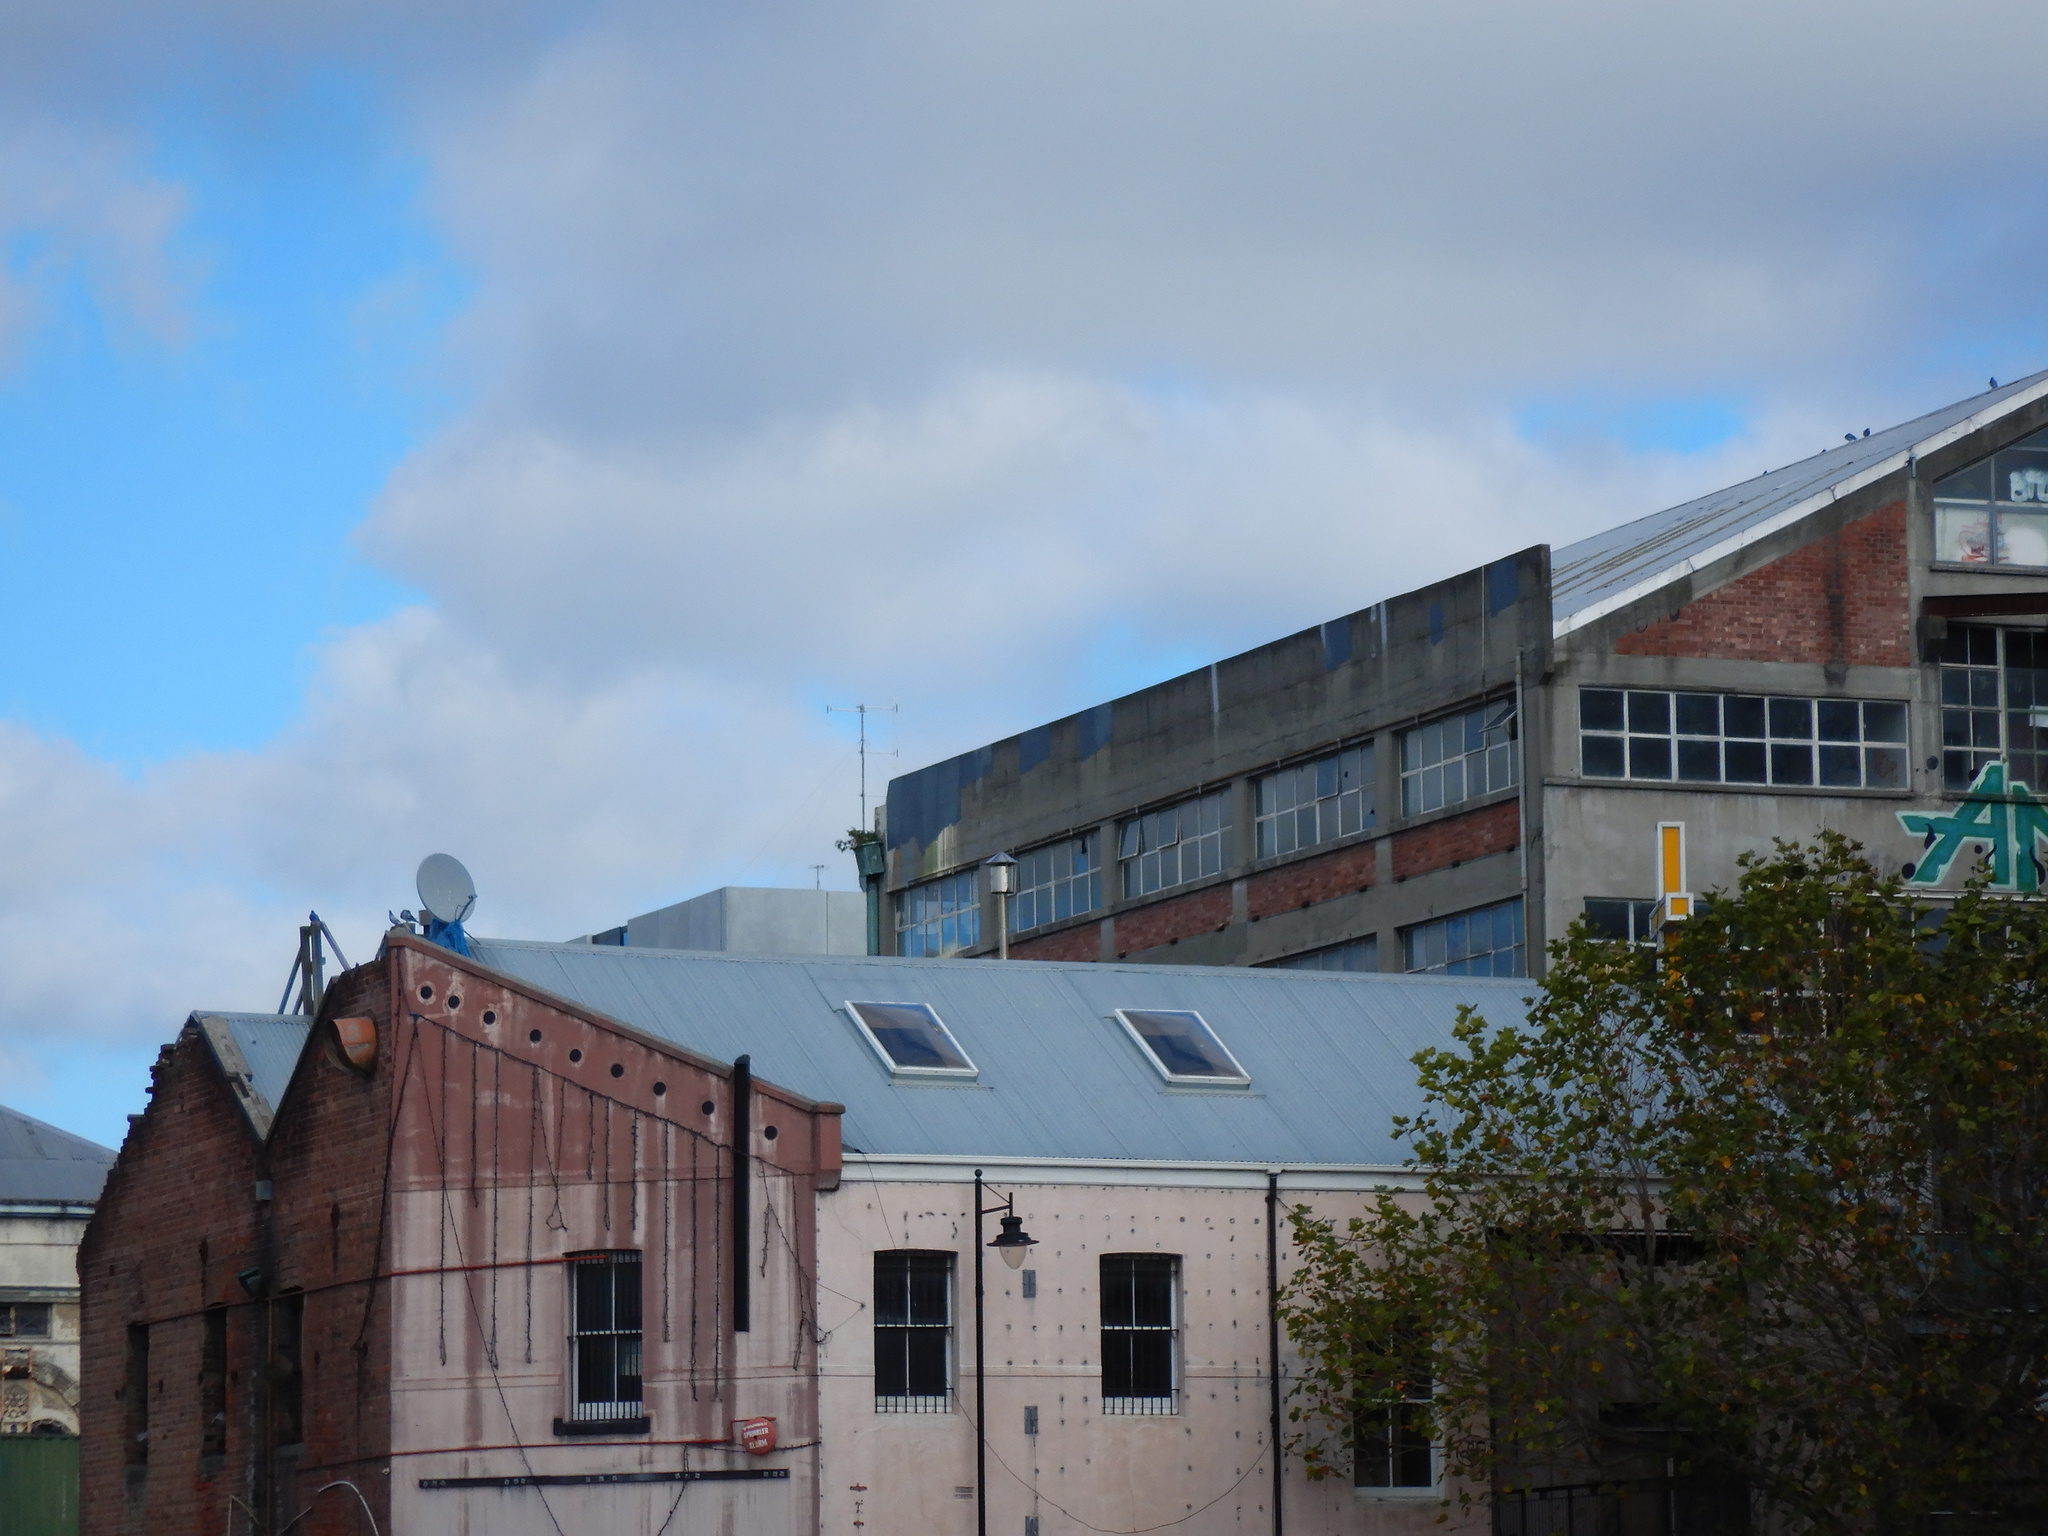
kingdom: Animalia
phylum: Chordata
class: Aves
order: Columbiformes
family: Columbidae
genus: Columba
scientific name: Columba livia
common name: Rock pigeon
